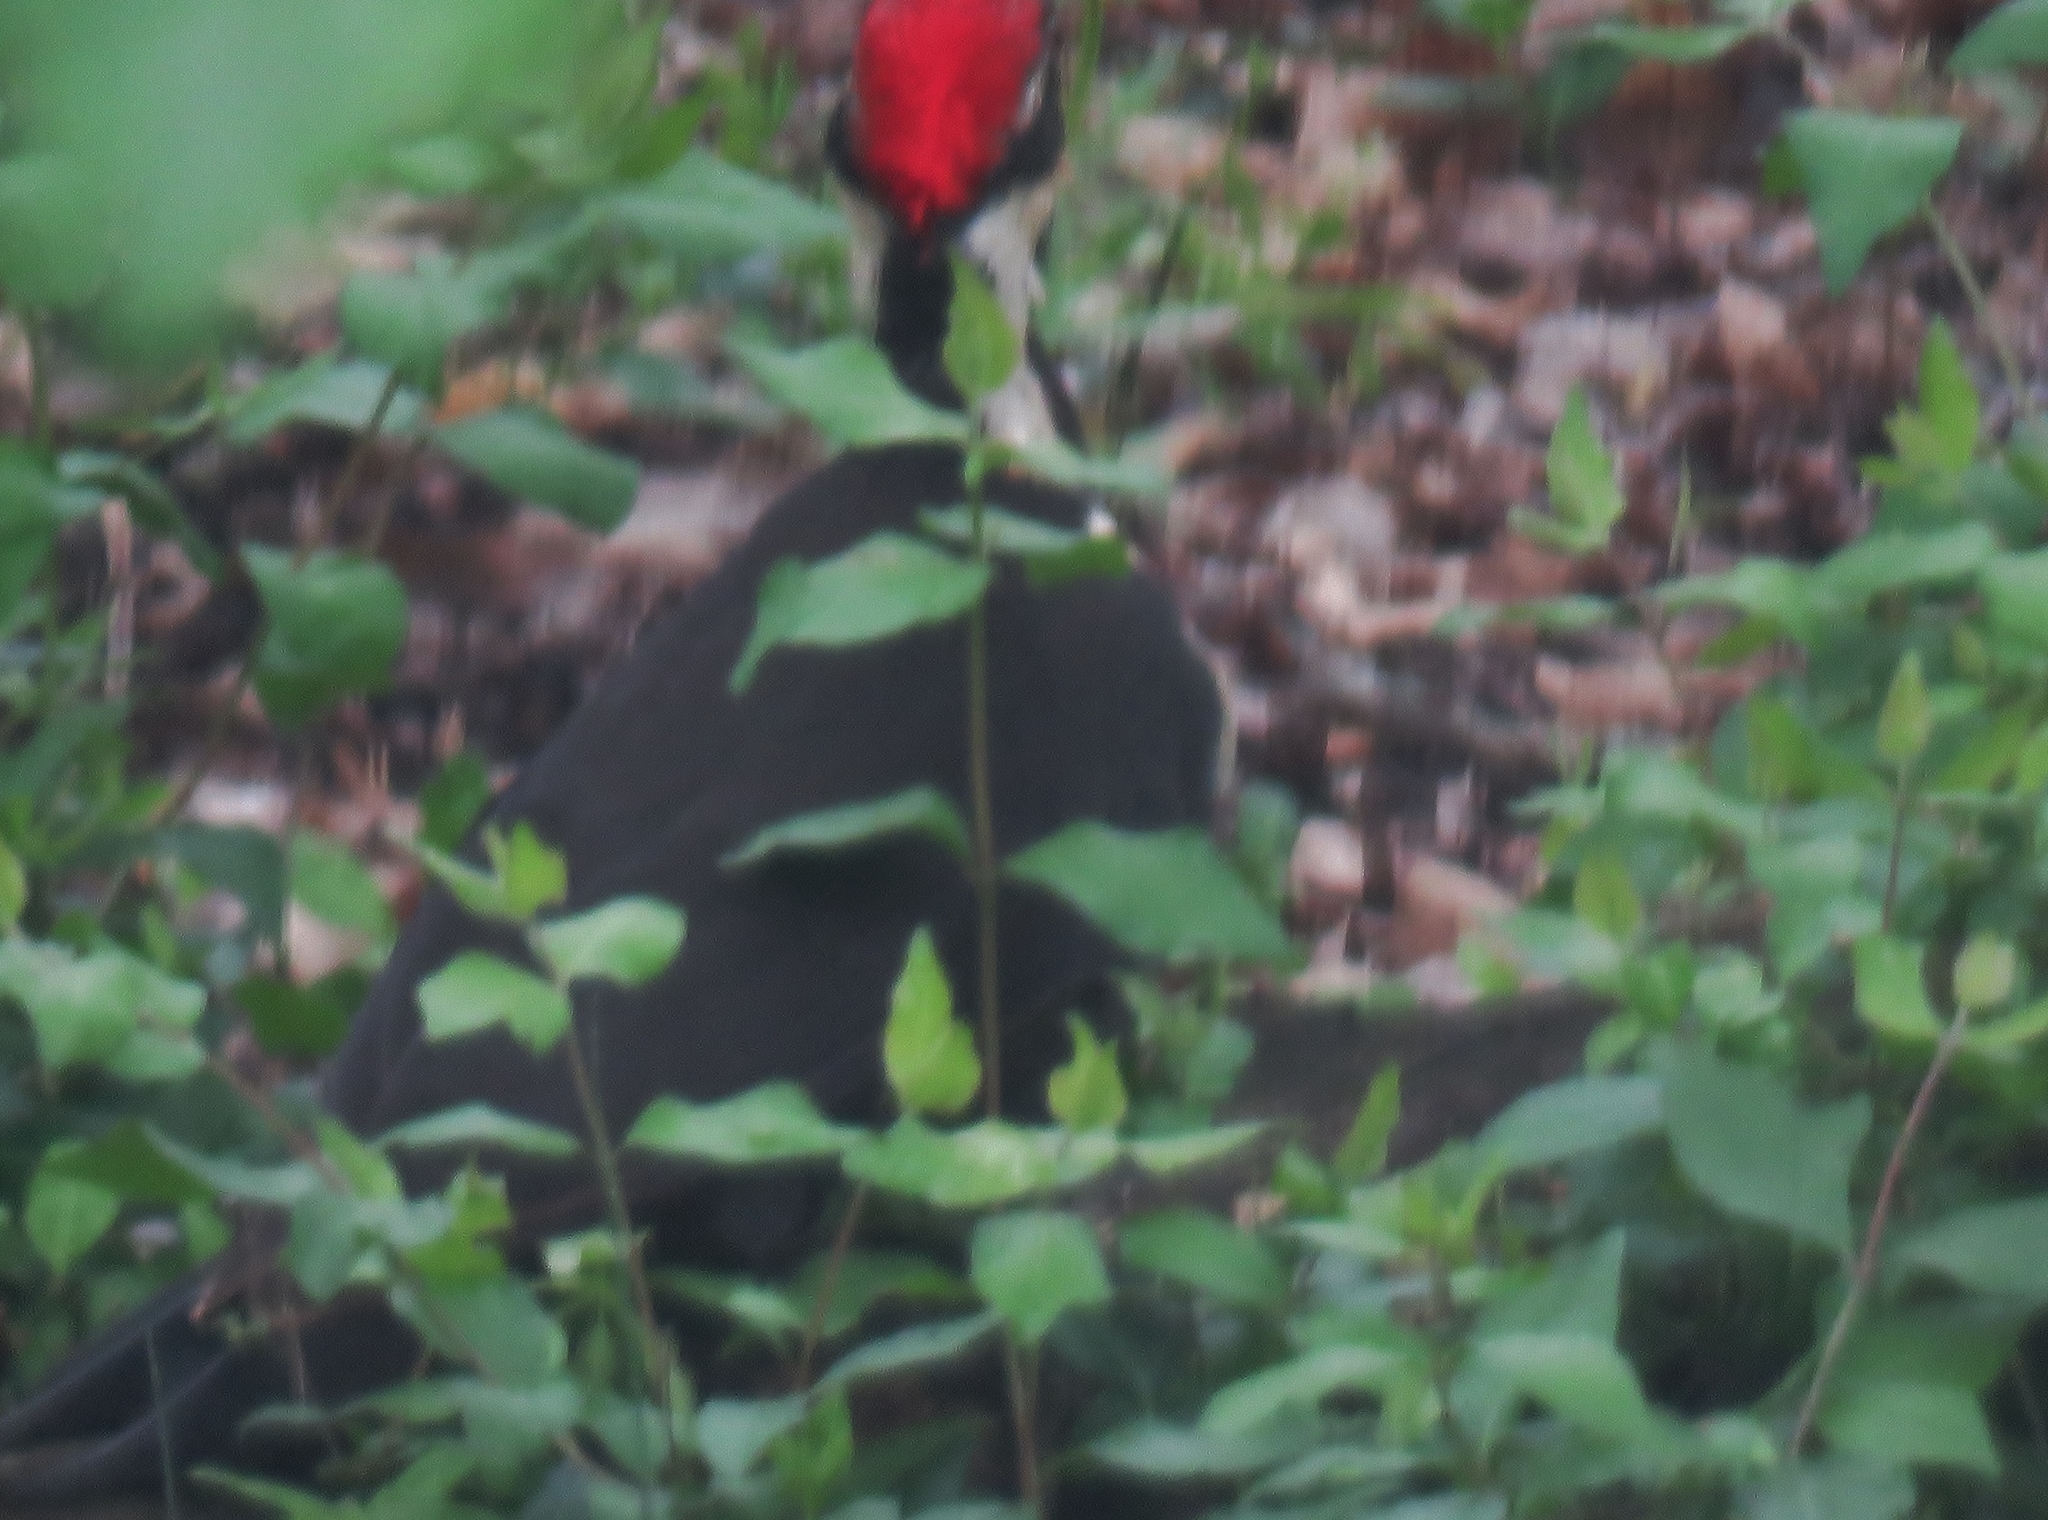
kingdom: Animalia
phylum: Chordata
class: Aves
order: Piciformes
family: Picidae
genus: Dryocopus
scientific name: Dryocopus pileatus
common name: Pileated woodpecker
